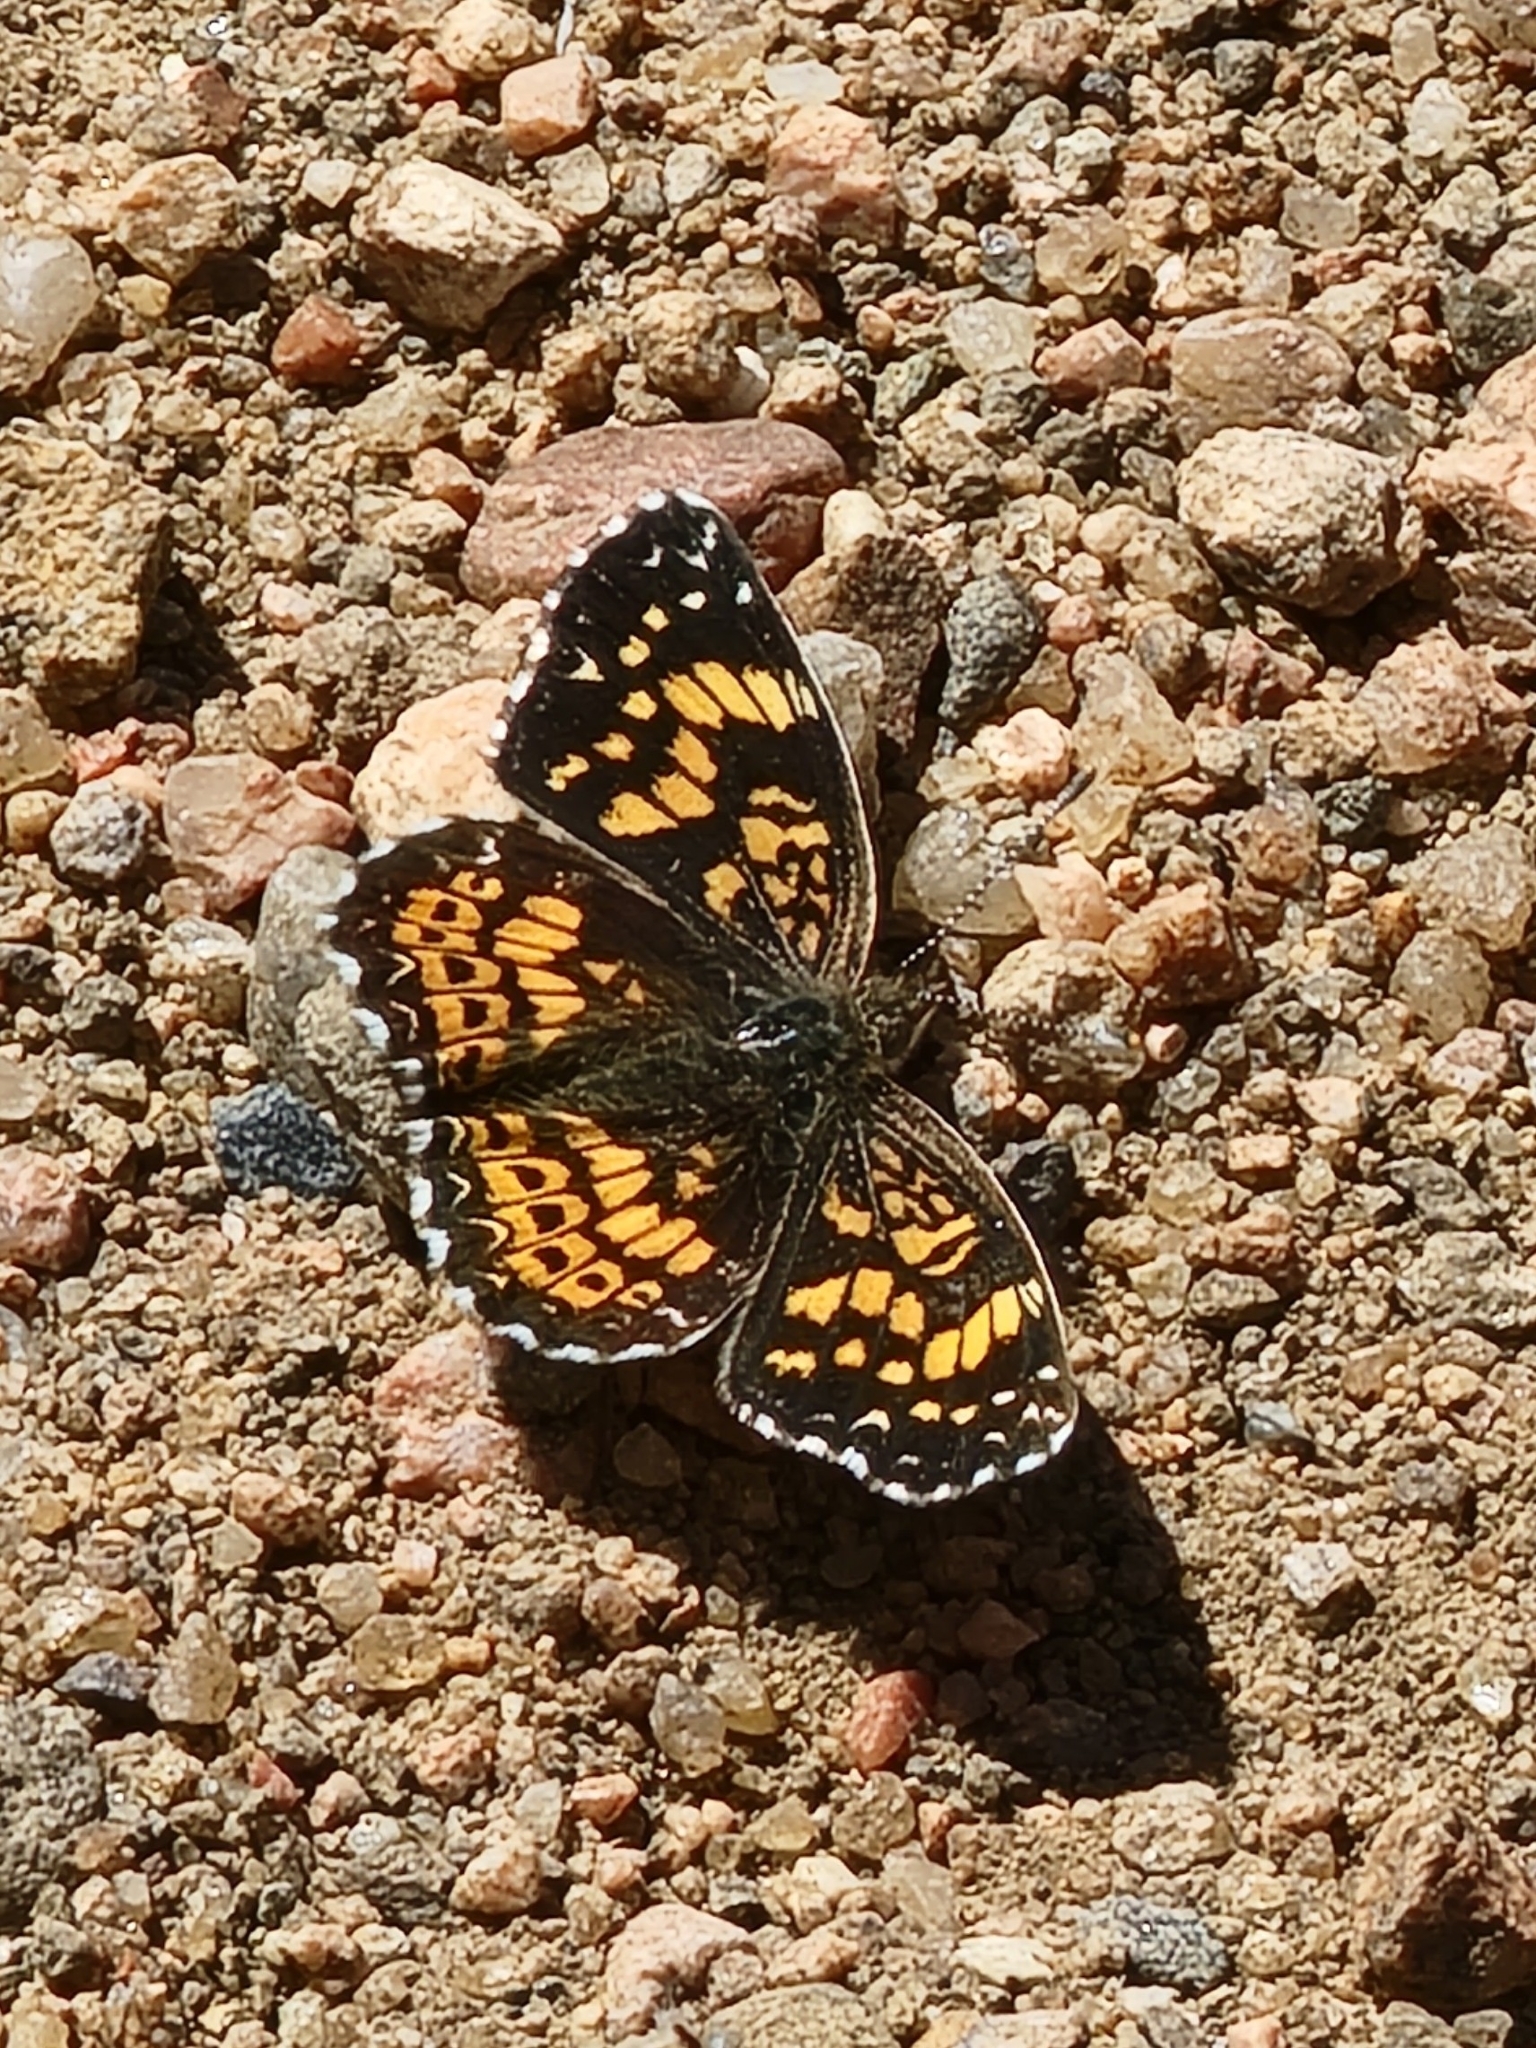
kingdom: Animalia
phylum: Arthropoda
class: Insecta
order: Lepidoptera
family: Nymphalidae
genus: Chlosyne
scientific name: Chlosyne gorgone
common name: Gorgone checkerspot
